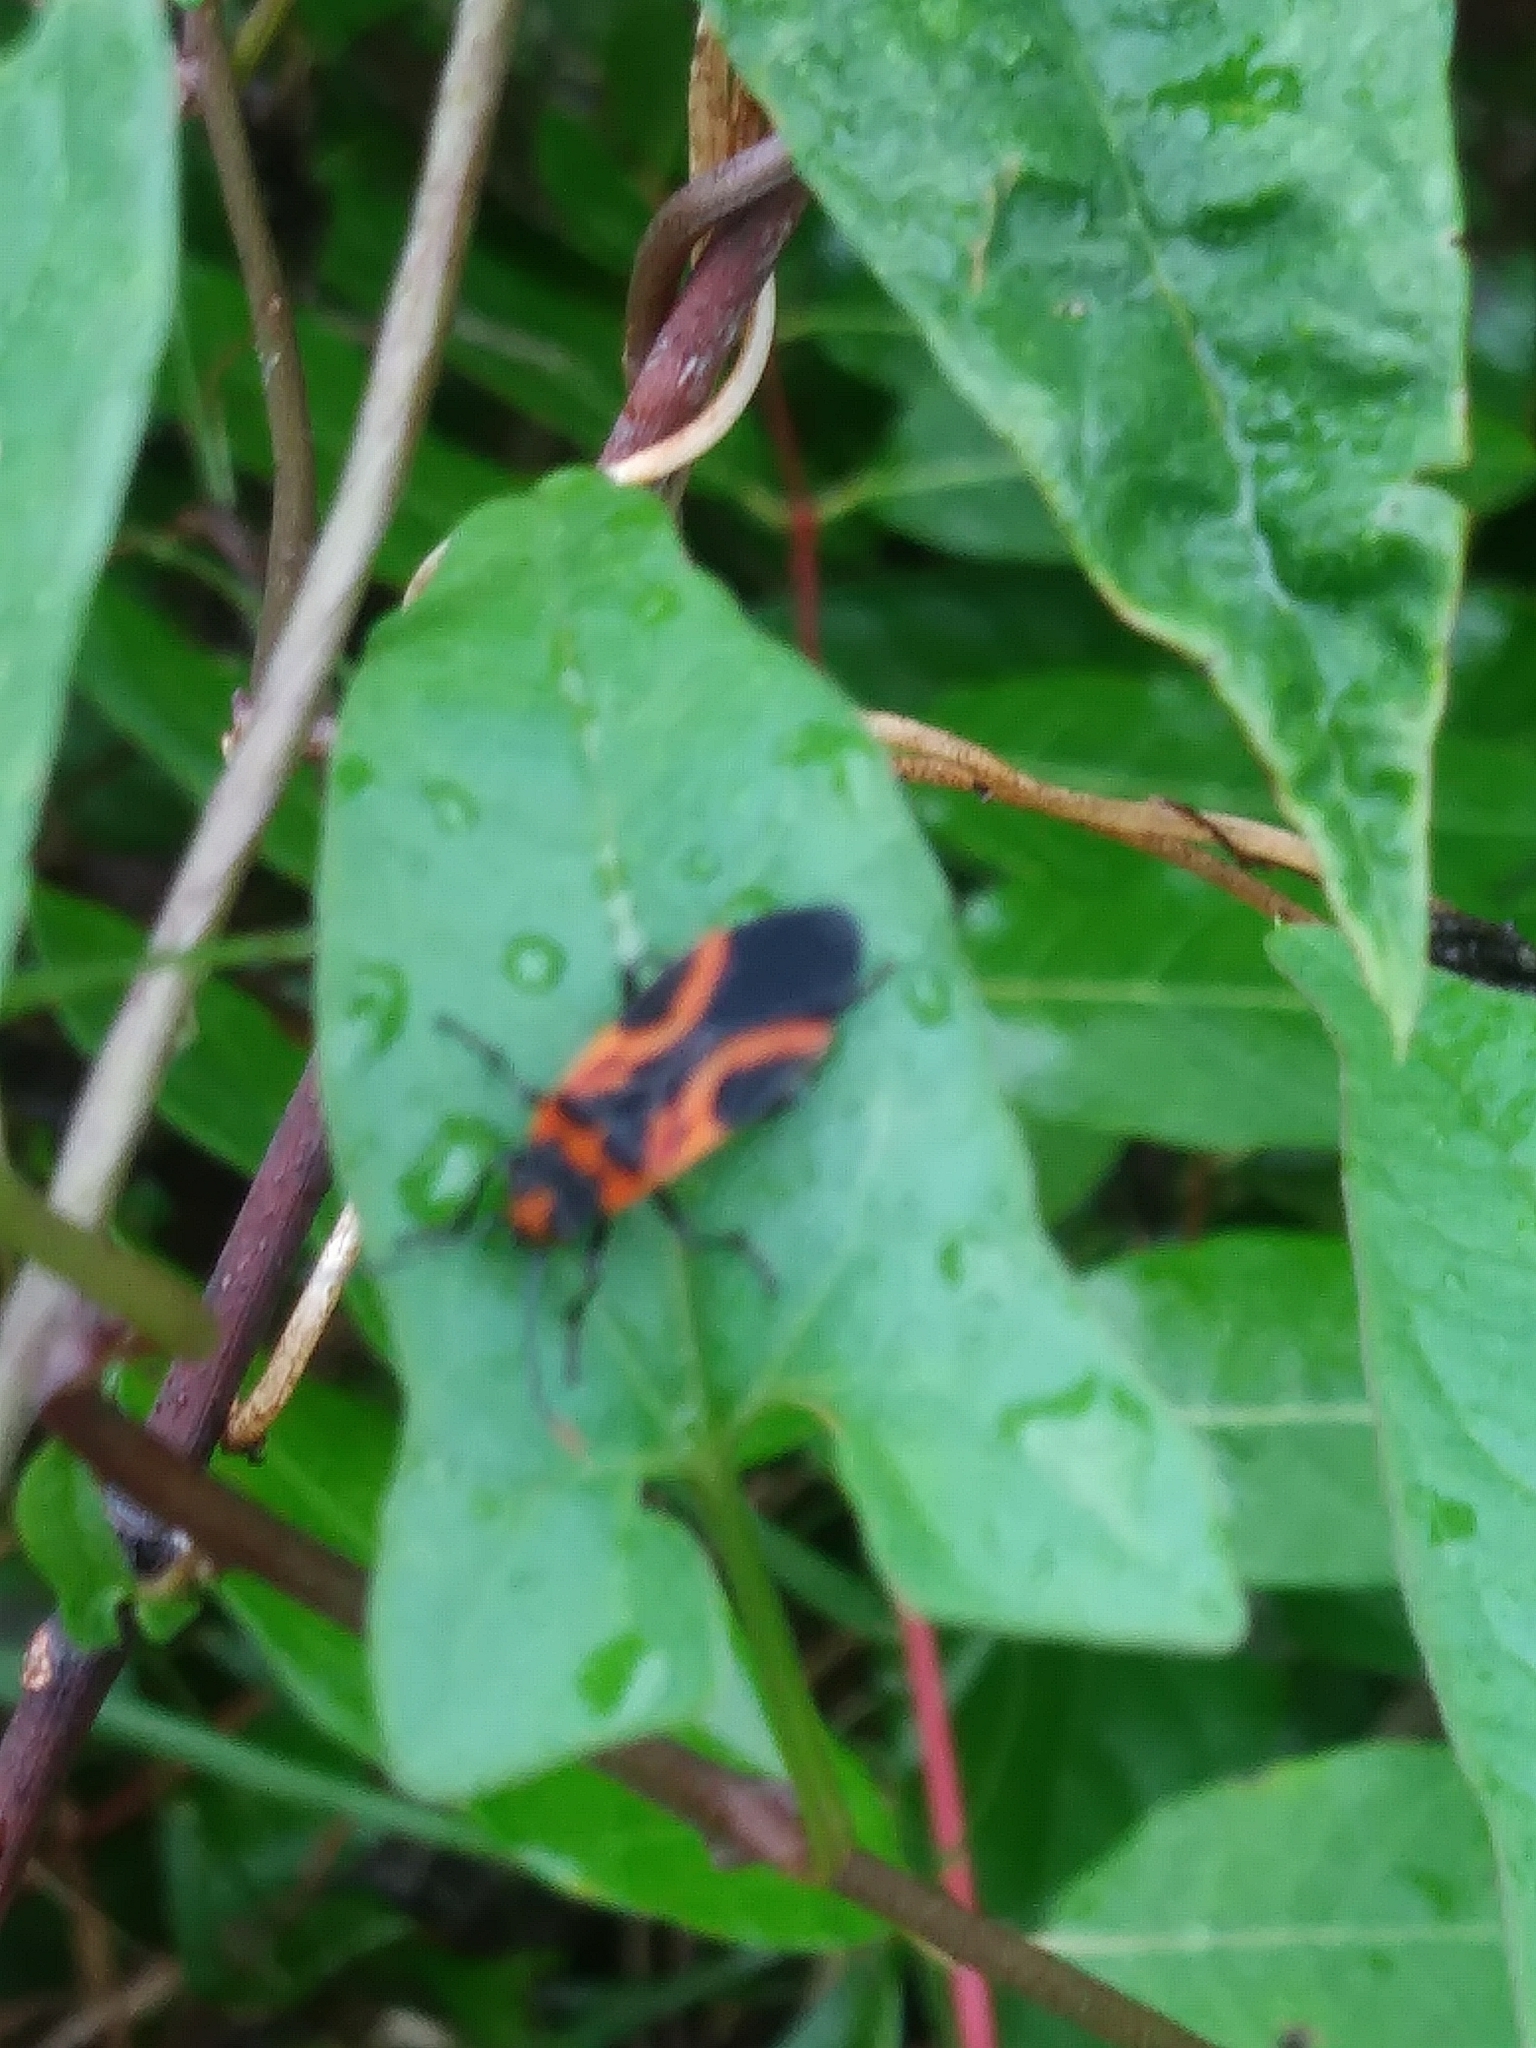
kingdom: Animalia
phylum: Arthropoda
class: Insecta
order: Hemiptera
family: Lygaeidae
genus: Lygaeus
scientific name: Lygaeus turcicus
